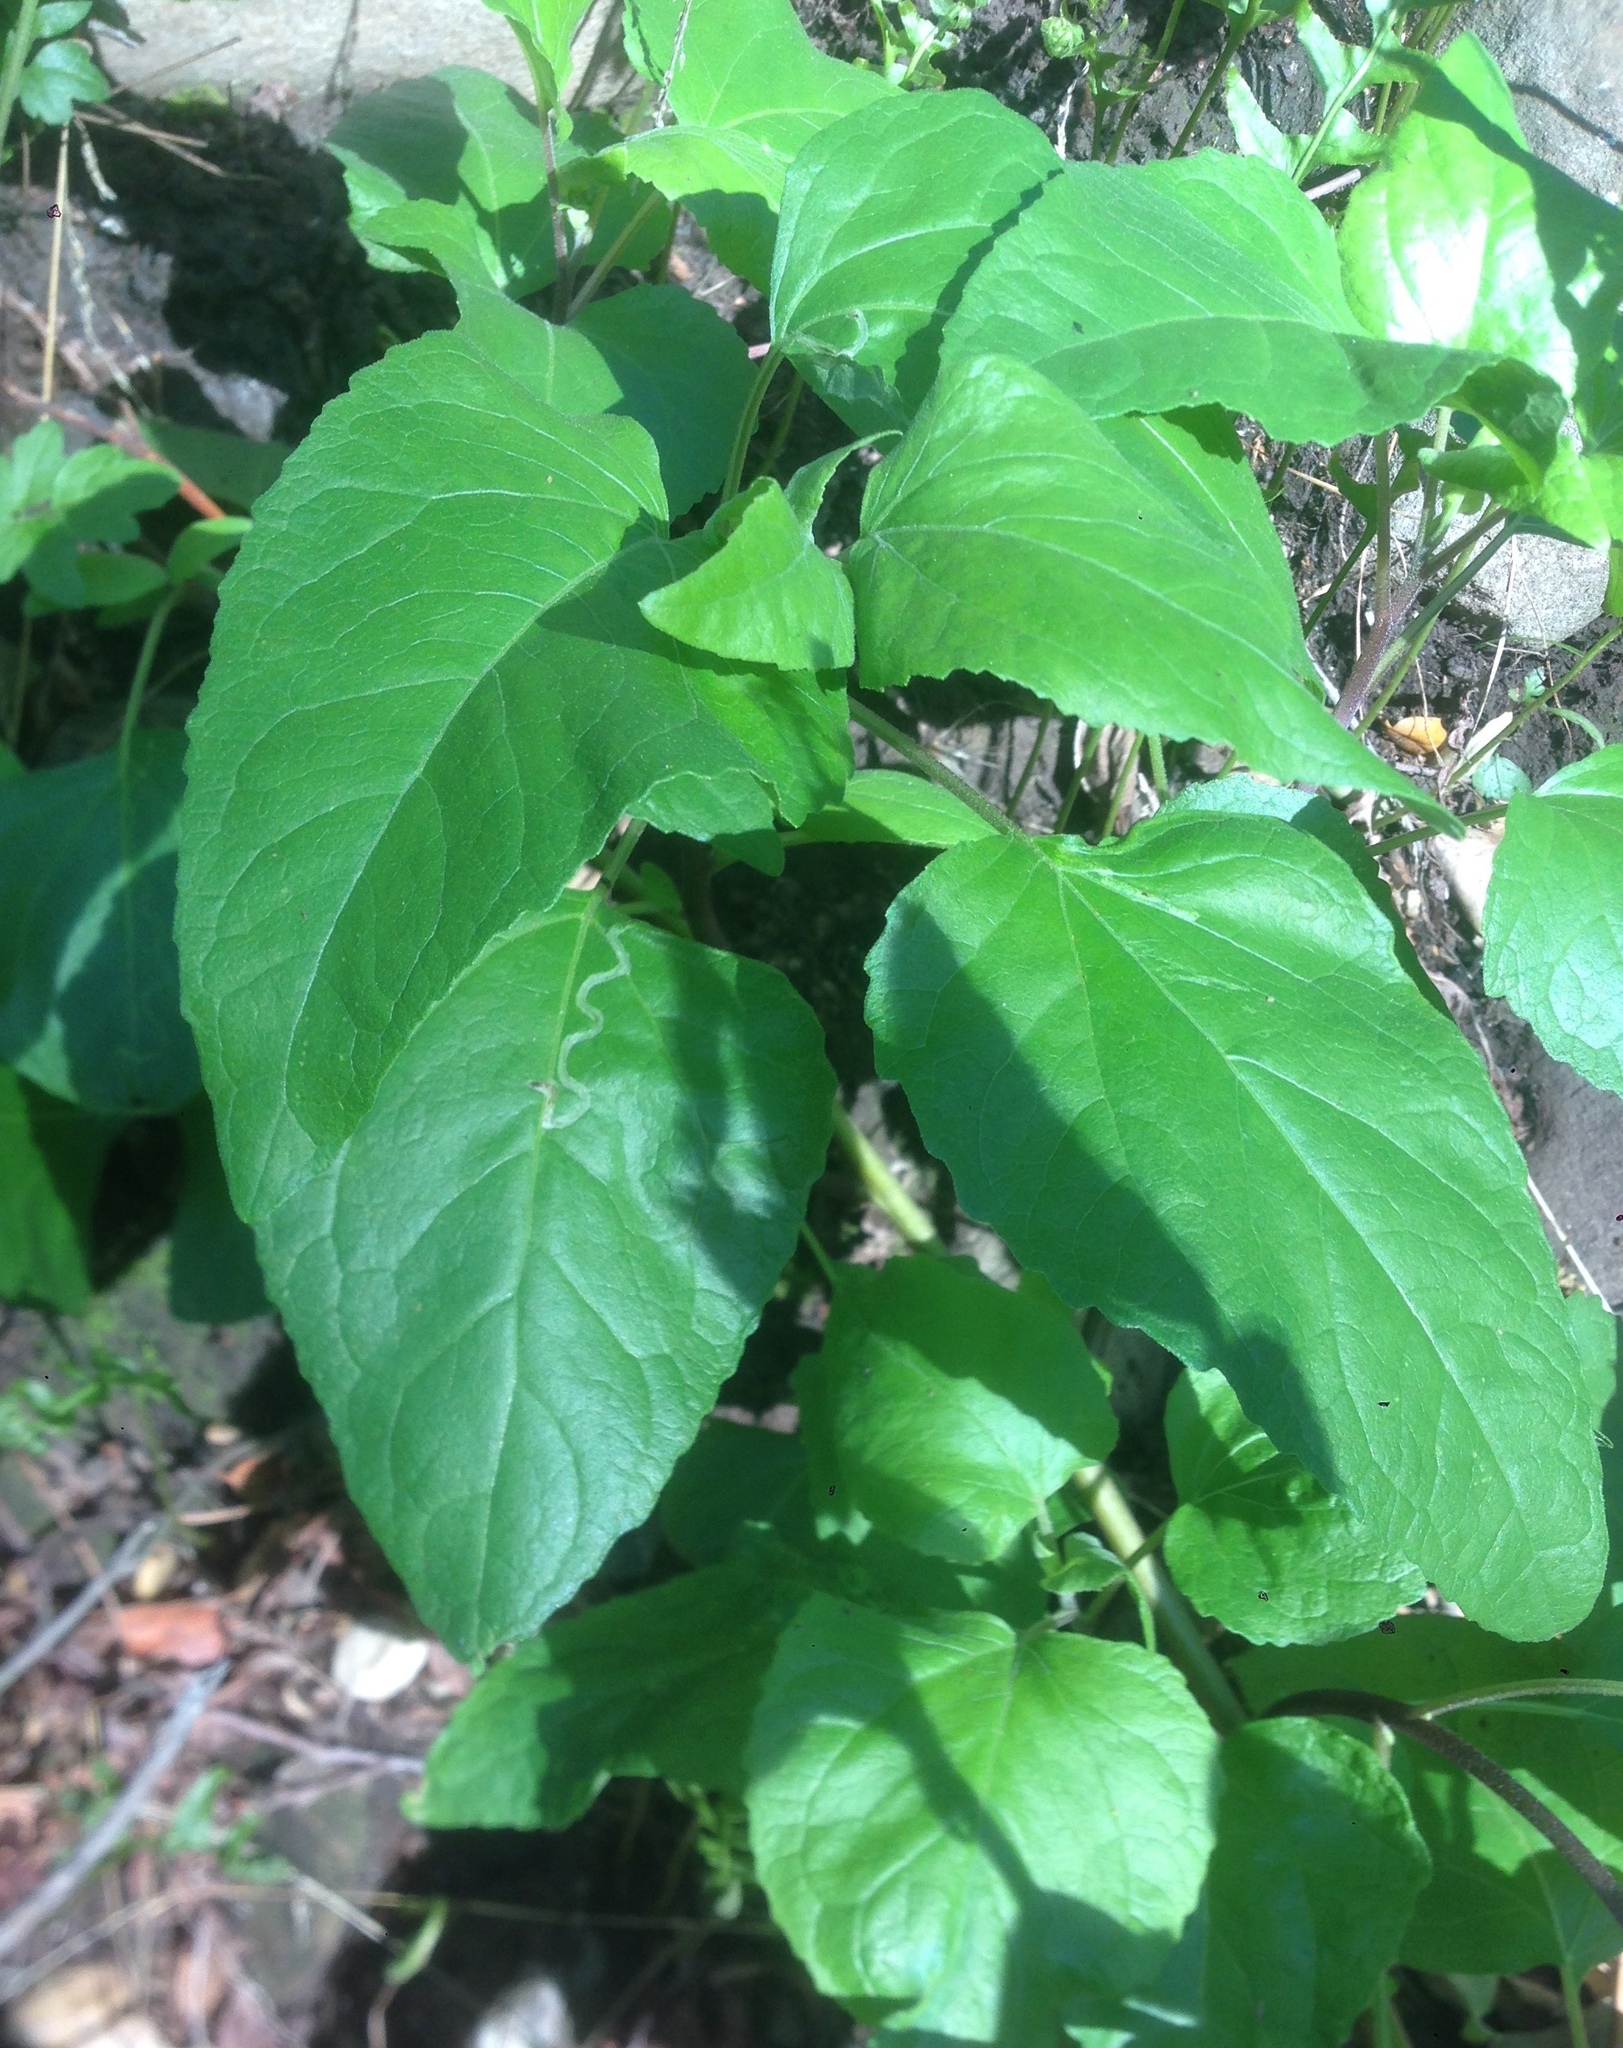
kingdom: Plantae
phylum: Tracheophyta
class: Magnoliopsida
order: Asterales
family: Asteraceae
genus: Venegasia
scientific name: Venegasia carpesioides
